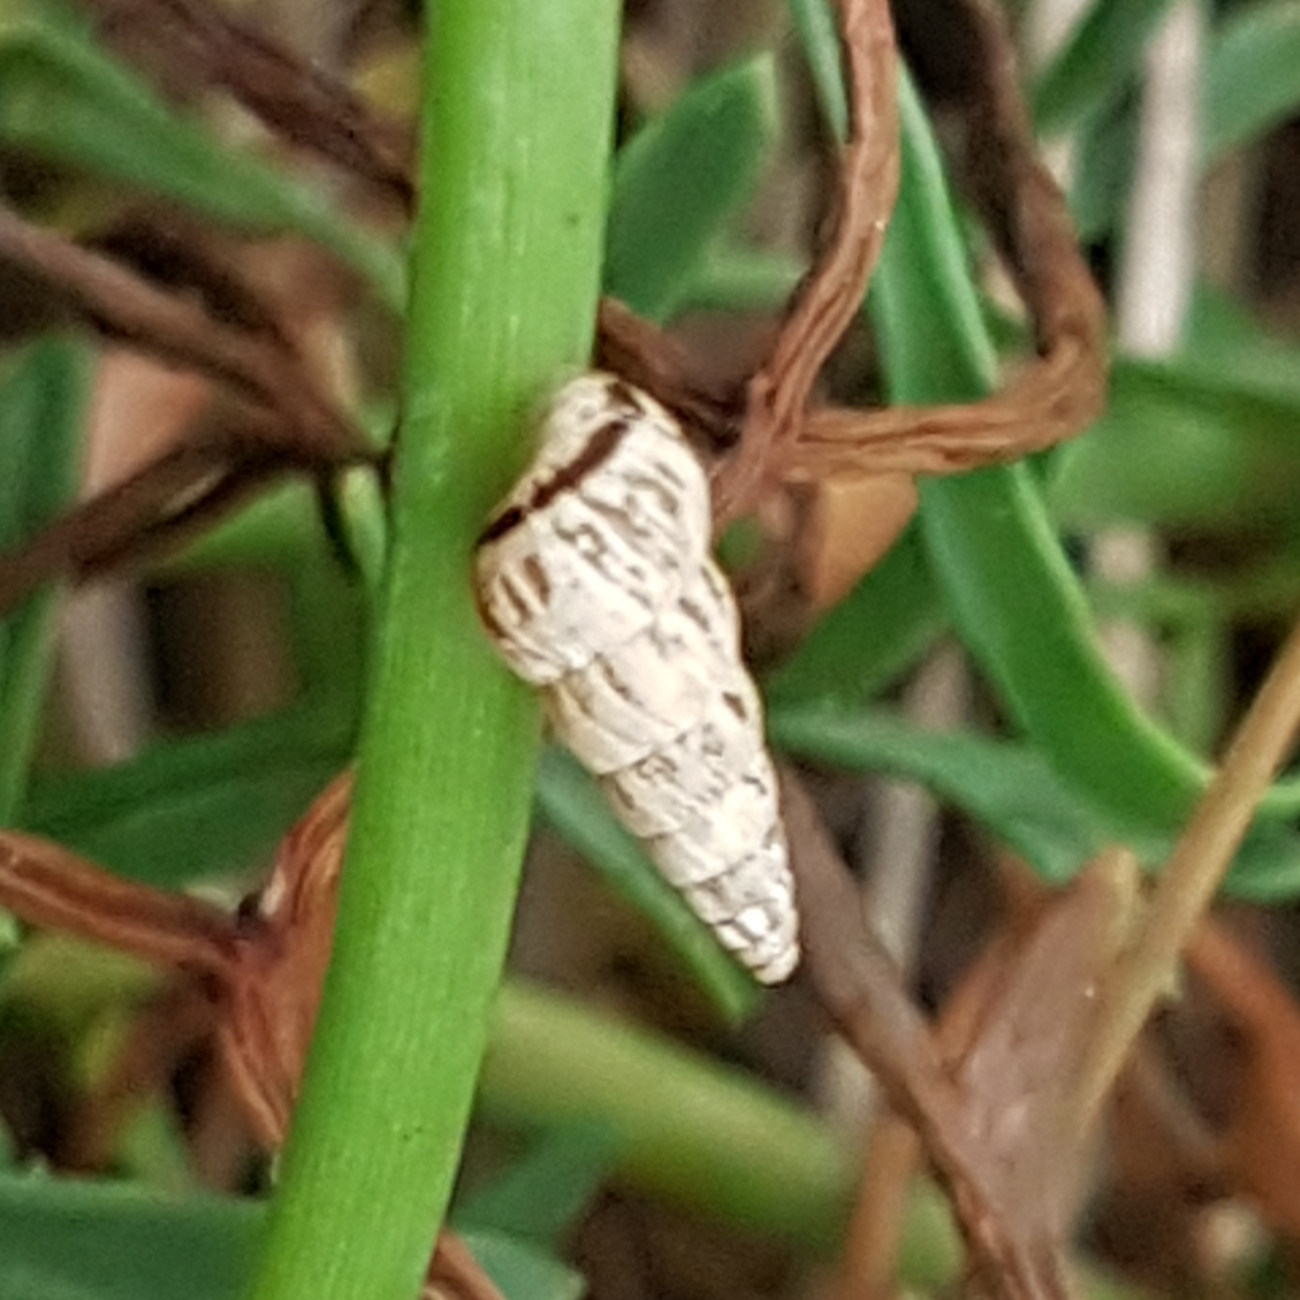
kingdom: Animalia
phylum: Mollusca
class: Gastropoda
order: Stylommatophora
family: Geomitridae
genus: Cochlicella
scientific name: Cochlicella acuta
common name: Pointed snail
